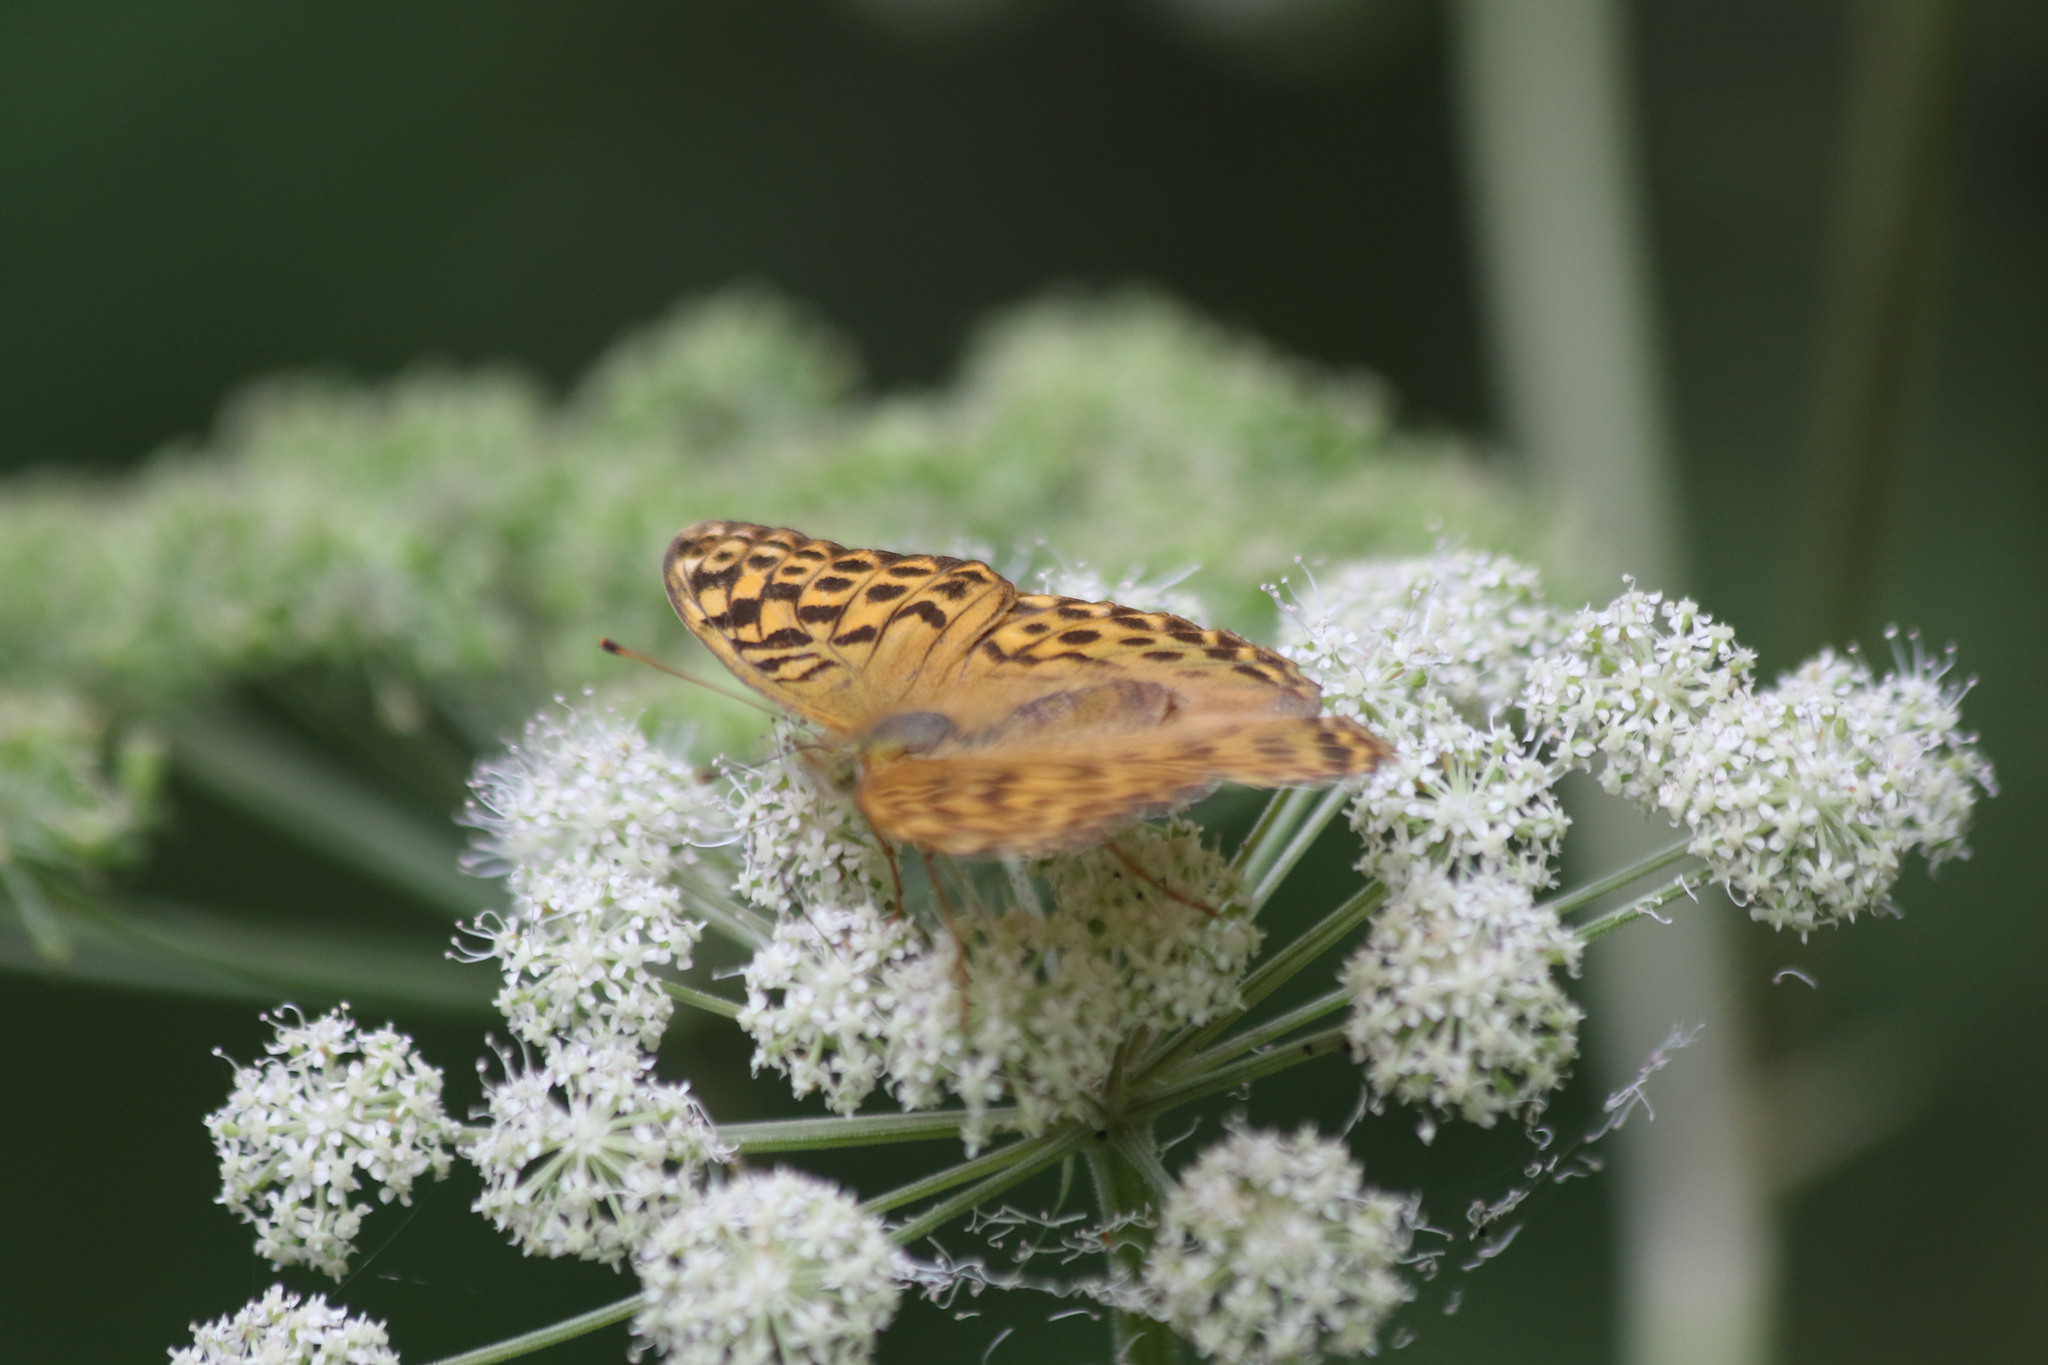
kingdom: Animalia
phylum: Arthropoda
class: Insecta
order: Lepidoptera
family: Nymphalidae
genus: Argynnis
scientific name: Argynnis paphia
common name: Silver-washed fritillary
